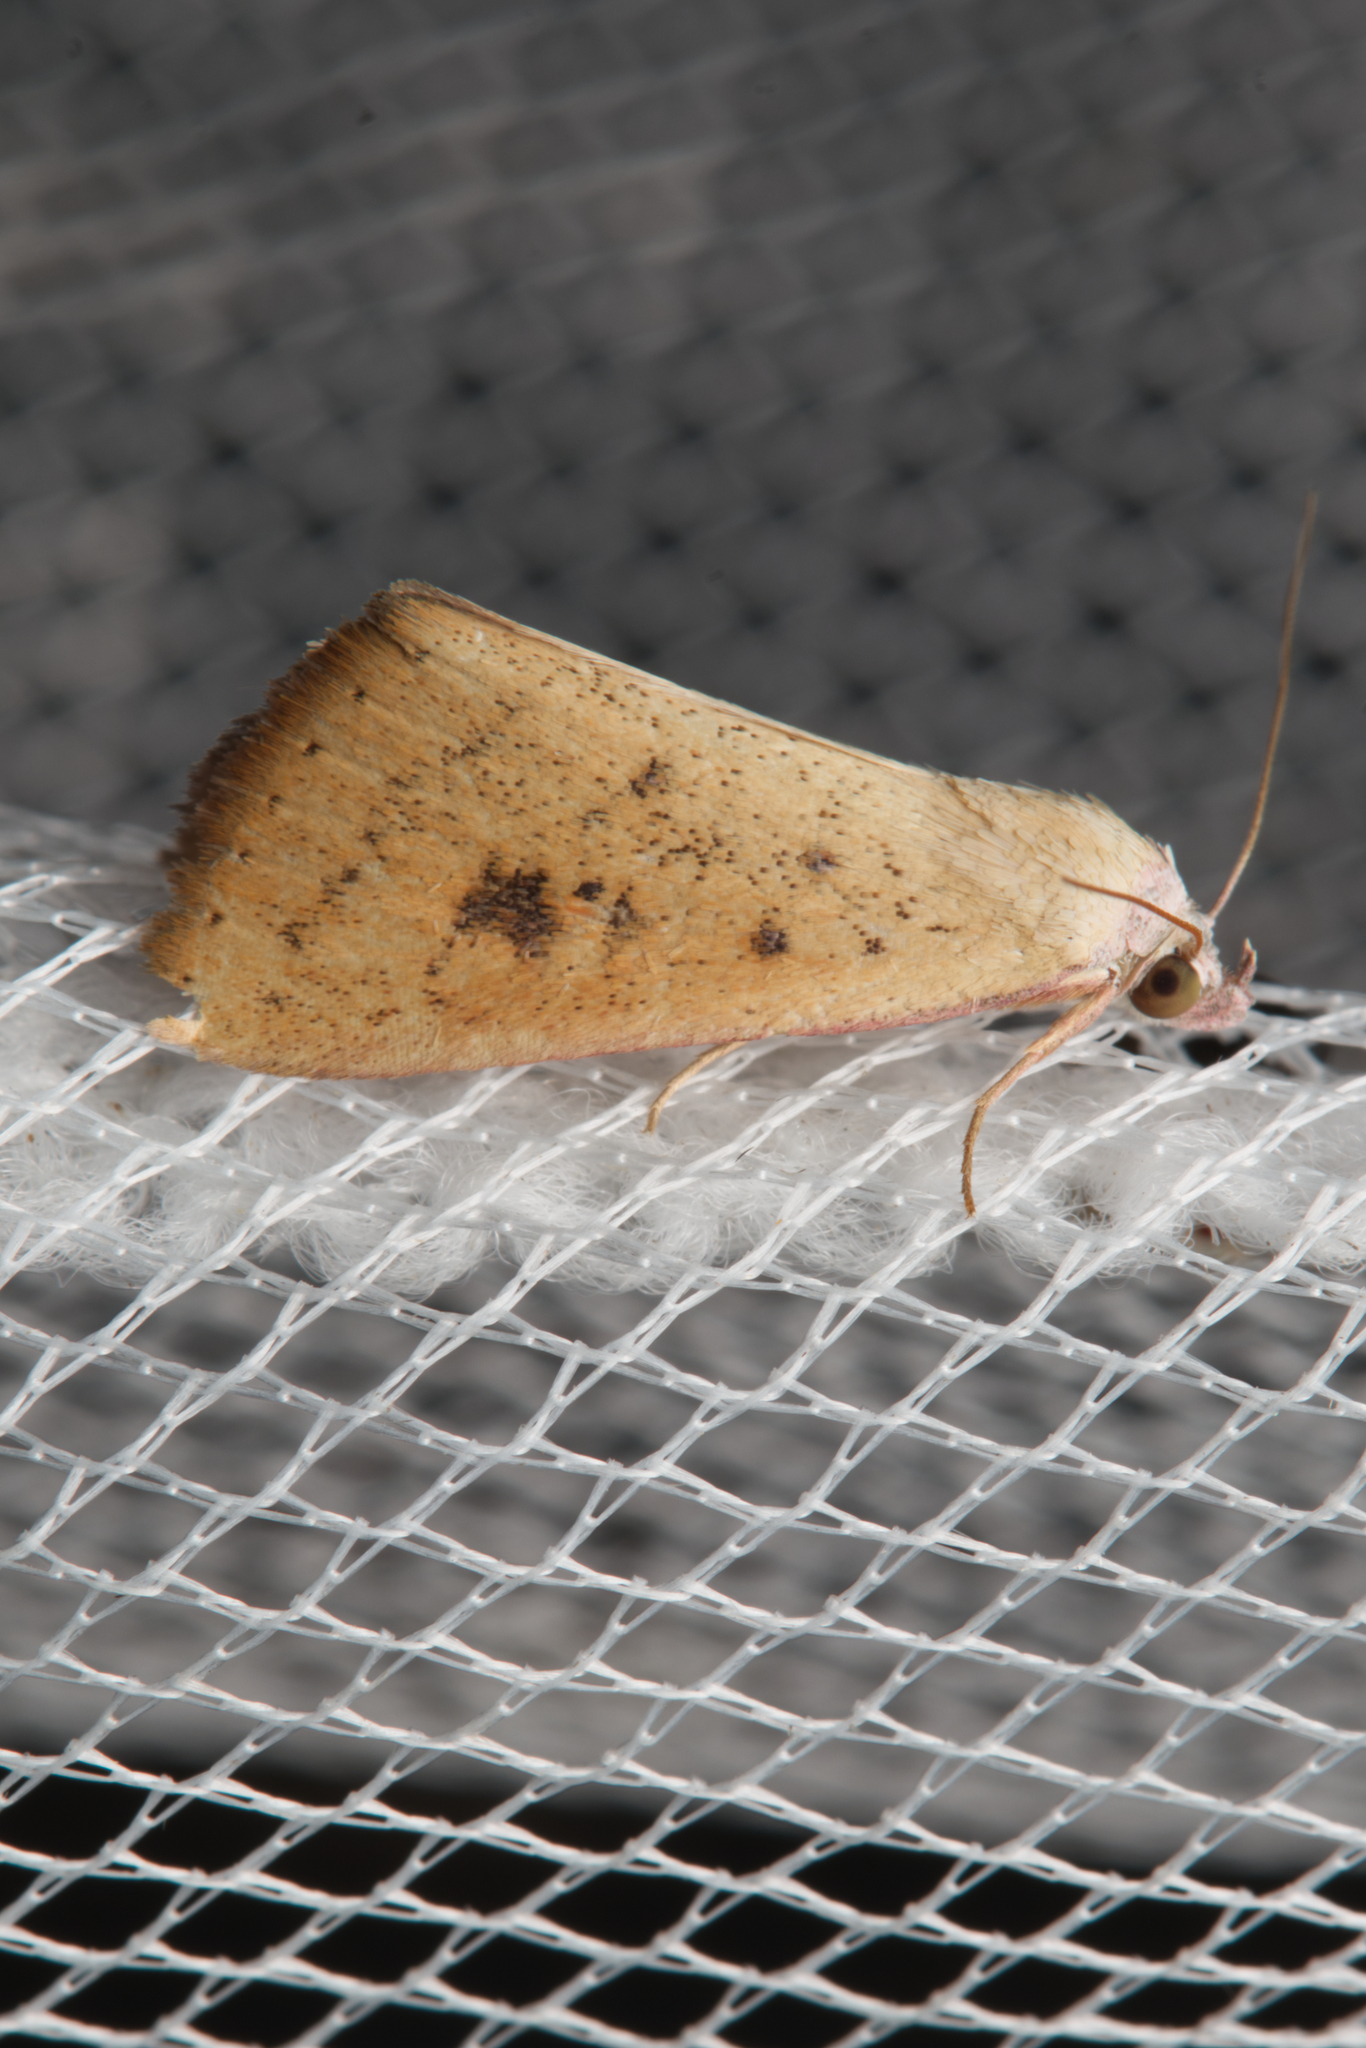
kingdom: Animalia
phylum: Arthropoda
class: Insecta
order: Lepidoptera
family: Erebidae
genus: Phytometra
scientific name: Phytometra laevis
